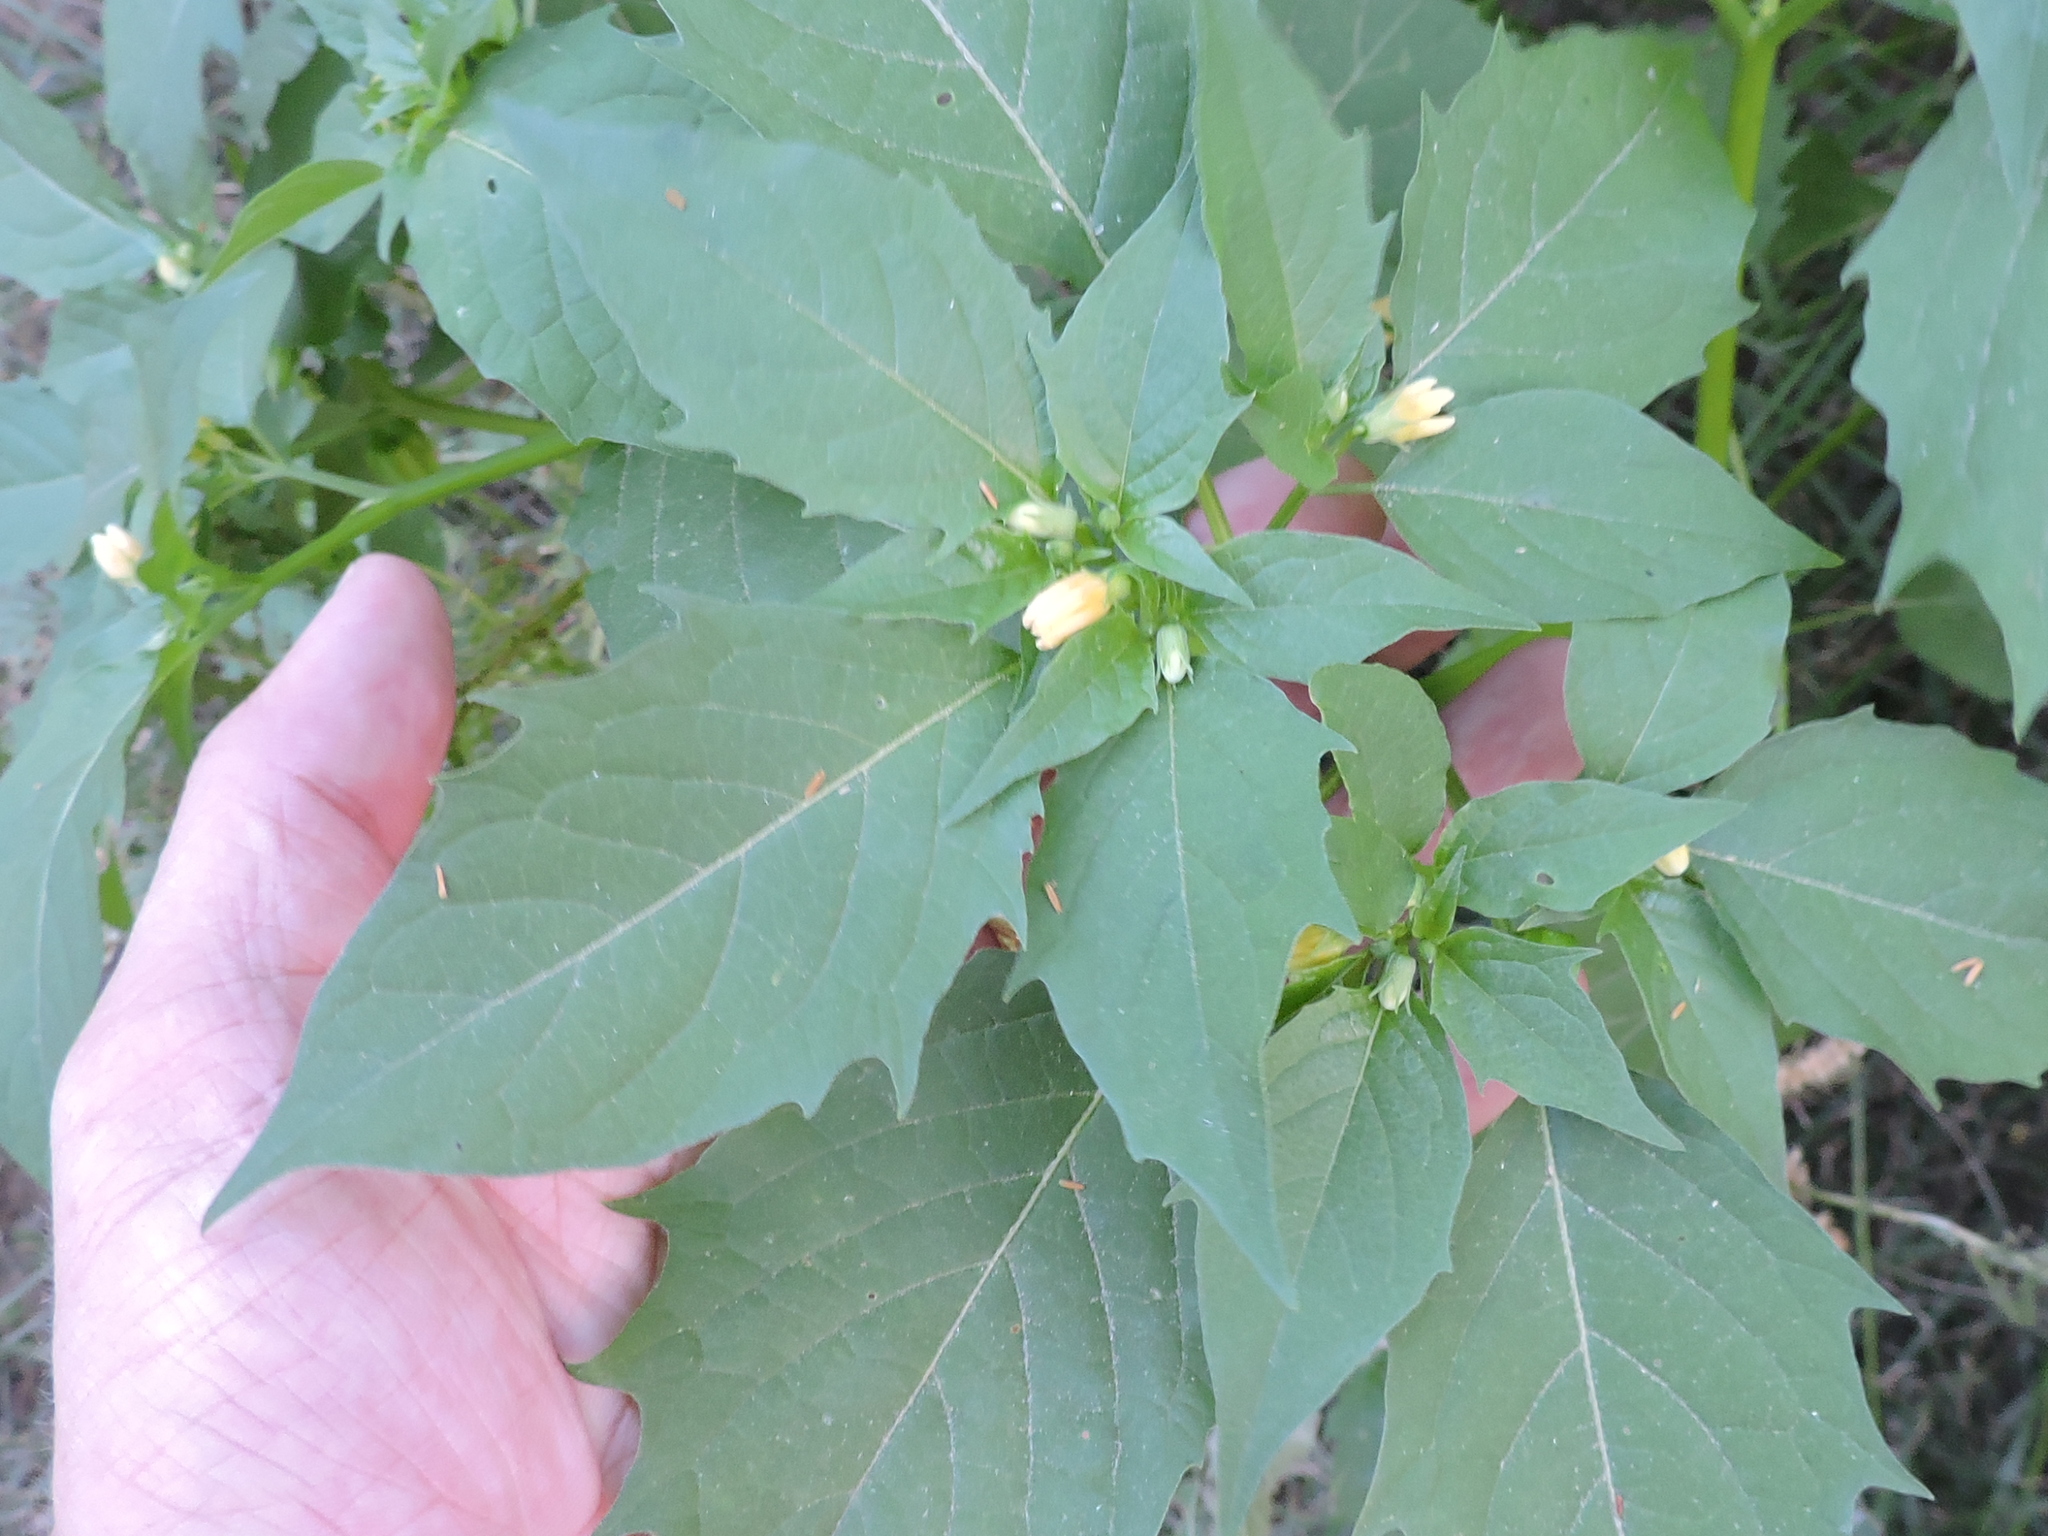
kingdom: Plantae
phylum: Tracheophyta
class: Magnoliopsida
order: Solanales
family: Solanaceae
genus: Physalis
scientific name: Physalis angulata
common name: Angular winter-cherry
